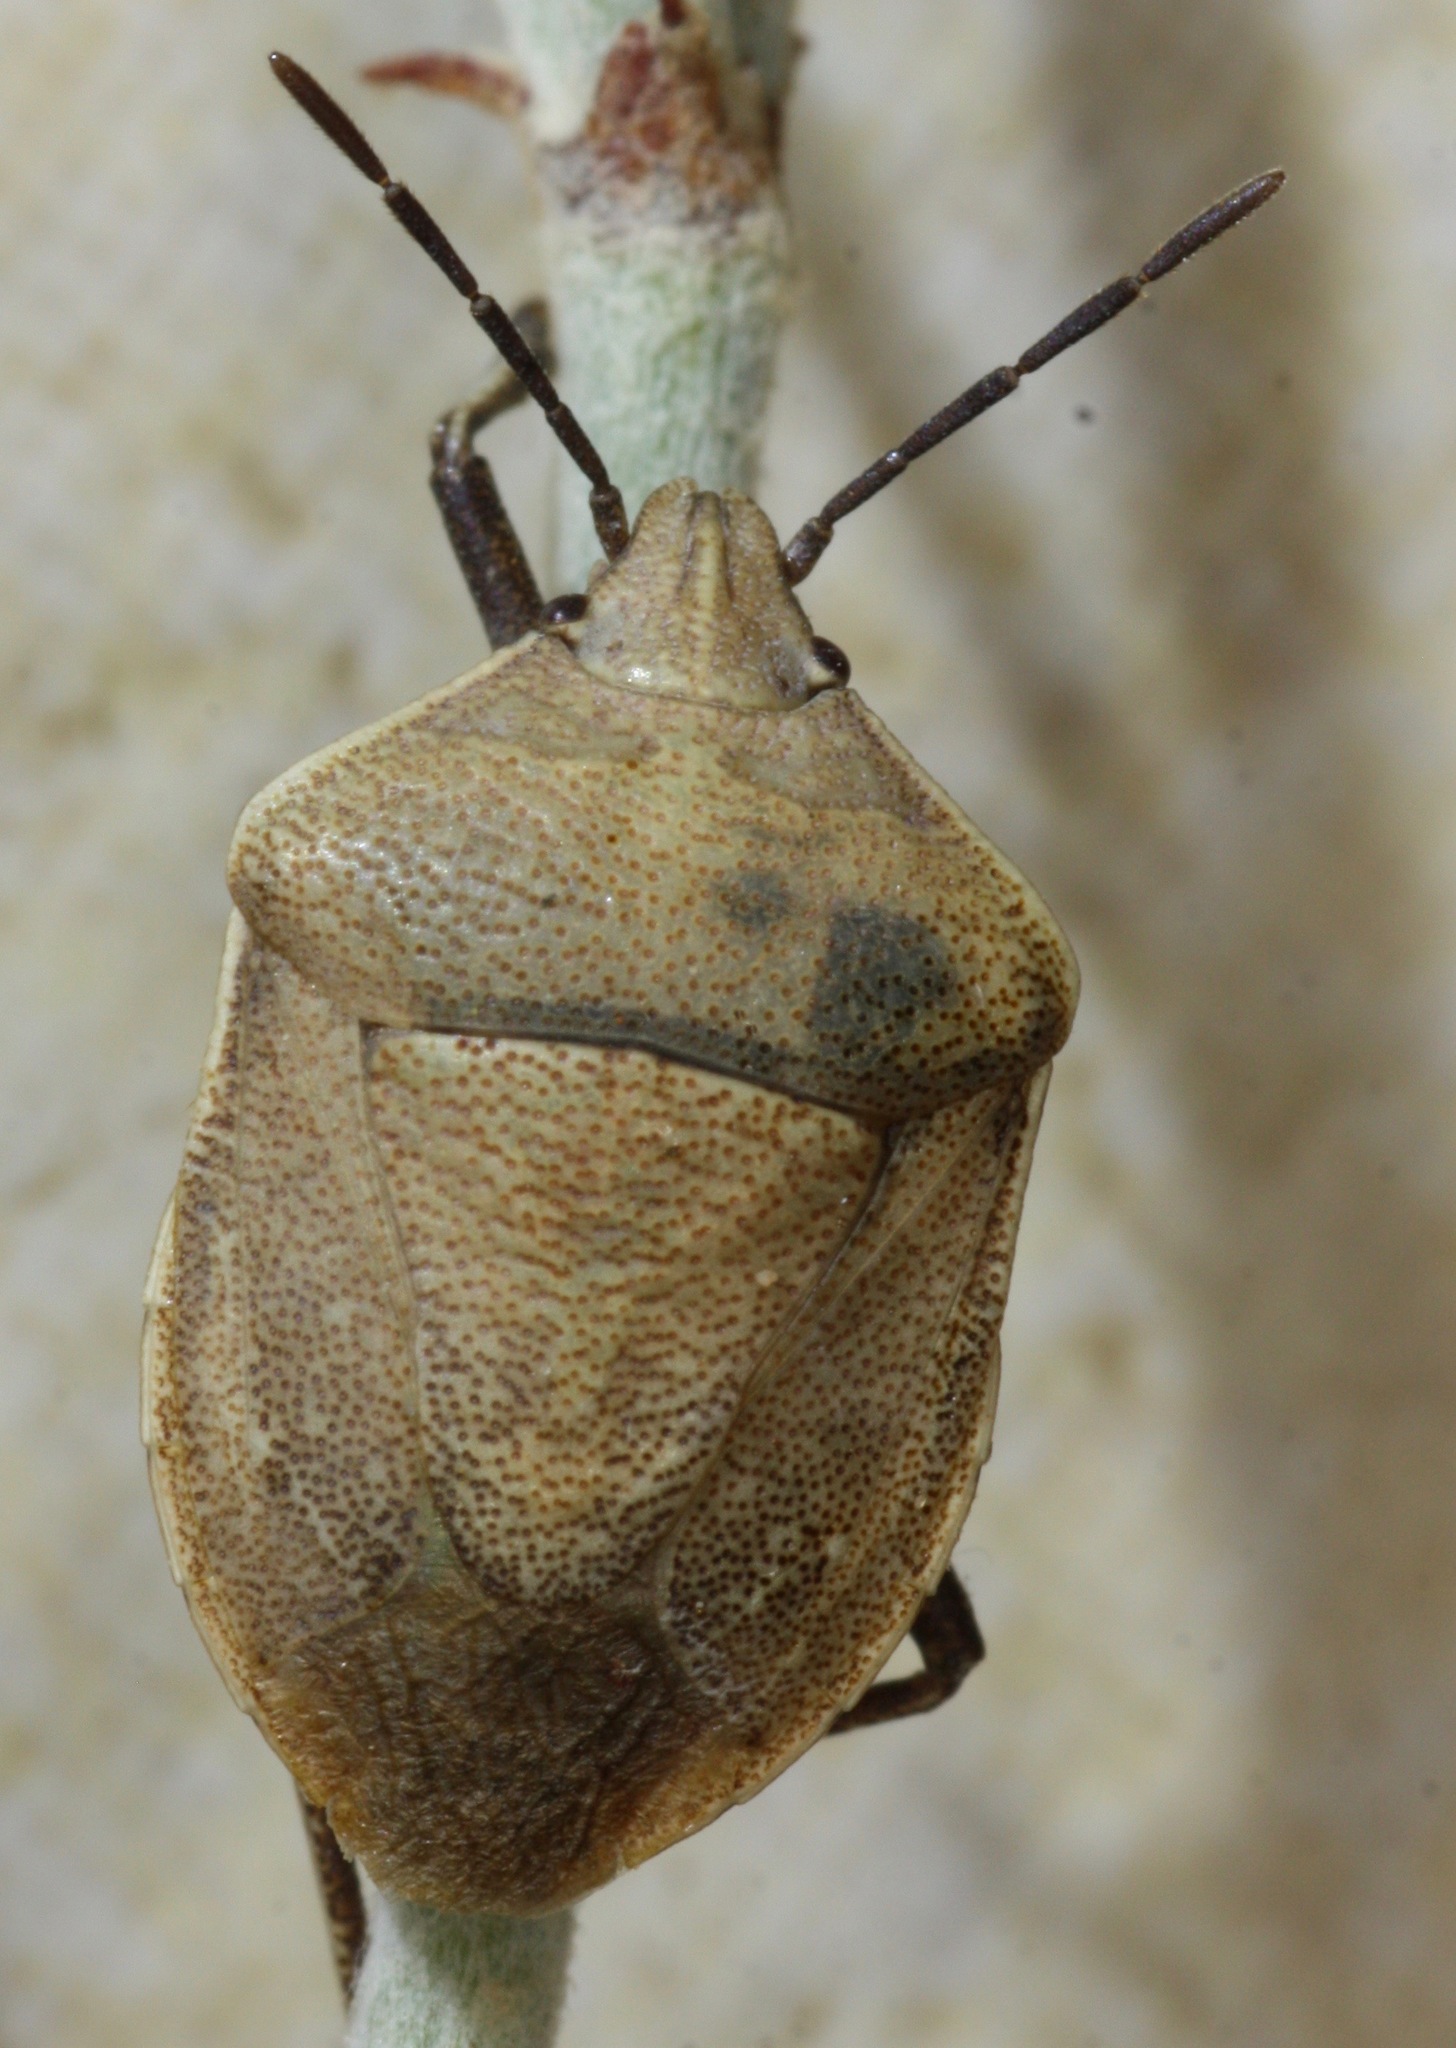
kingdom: Animalia
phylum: Arthropoda
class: Insecta
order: Hemiptera
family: Pentatomidae
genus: Hymenarcys
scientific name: Hymenarcys crassa
